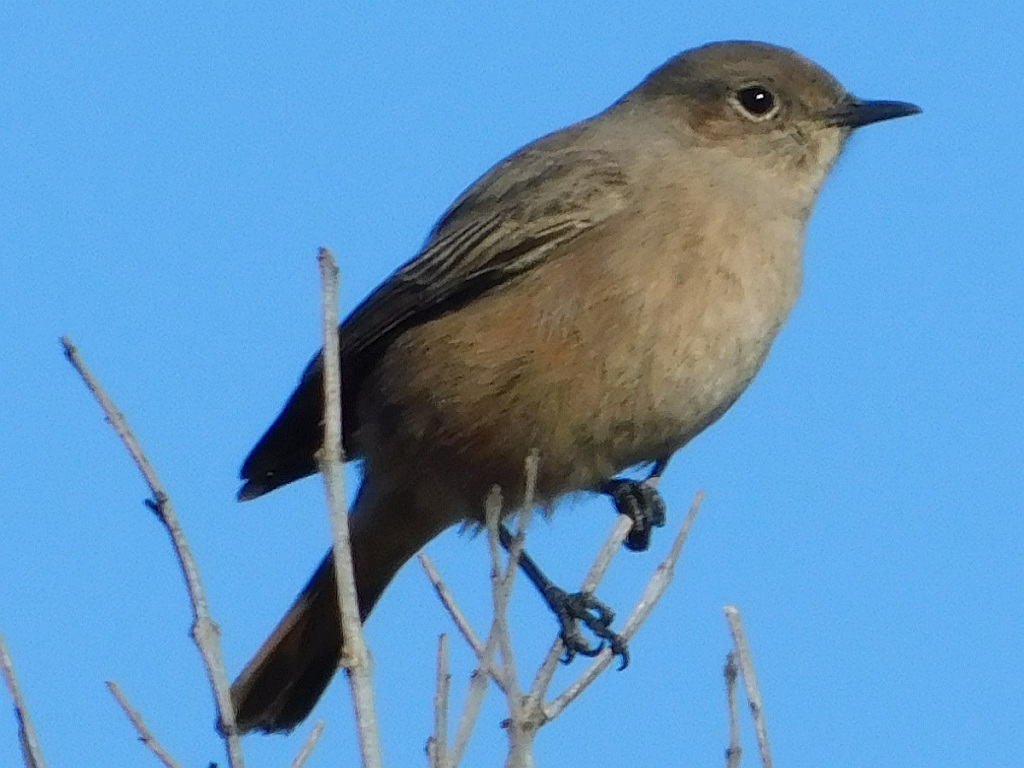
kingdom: Animalia
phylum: Chordata
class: Aves
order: Passeriformes
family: Muscicapidae
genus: Oenanthe
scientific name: Oenanthe familiaris
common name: Familiar chat
